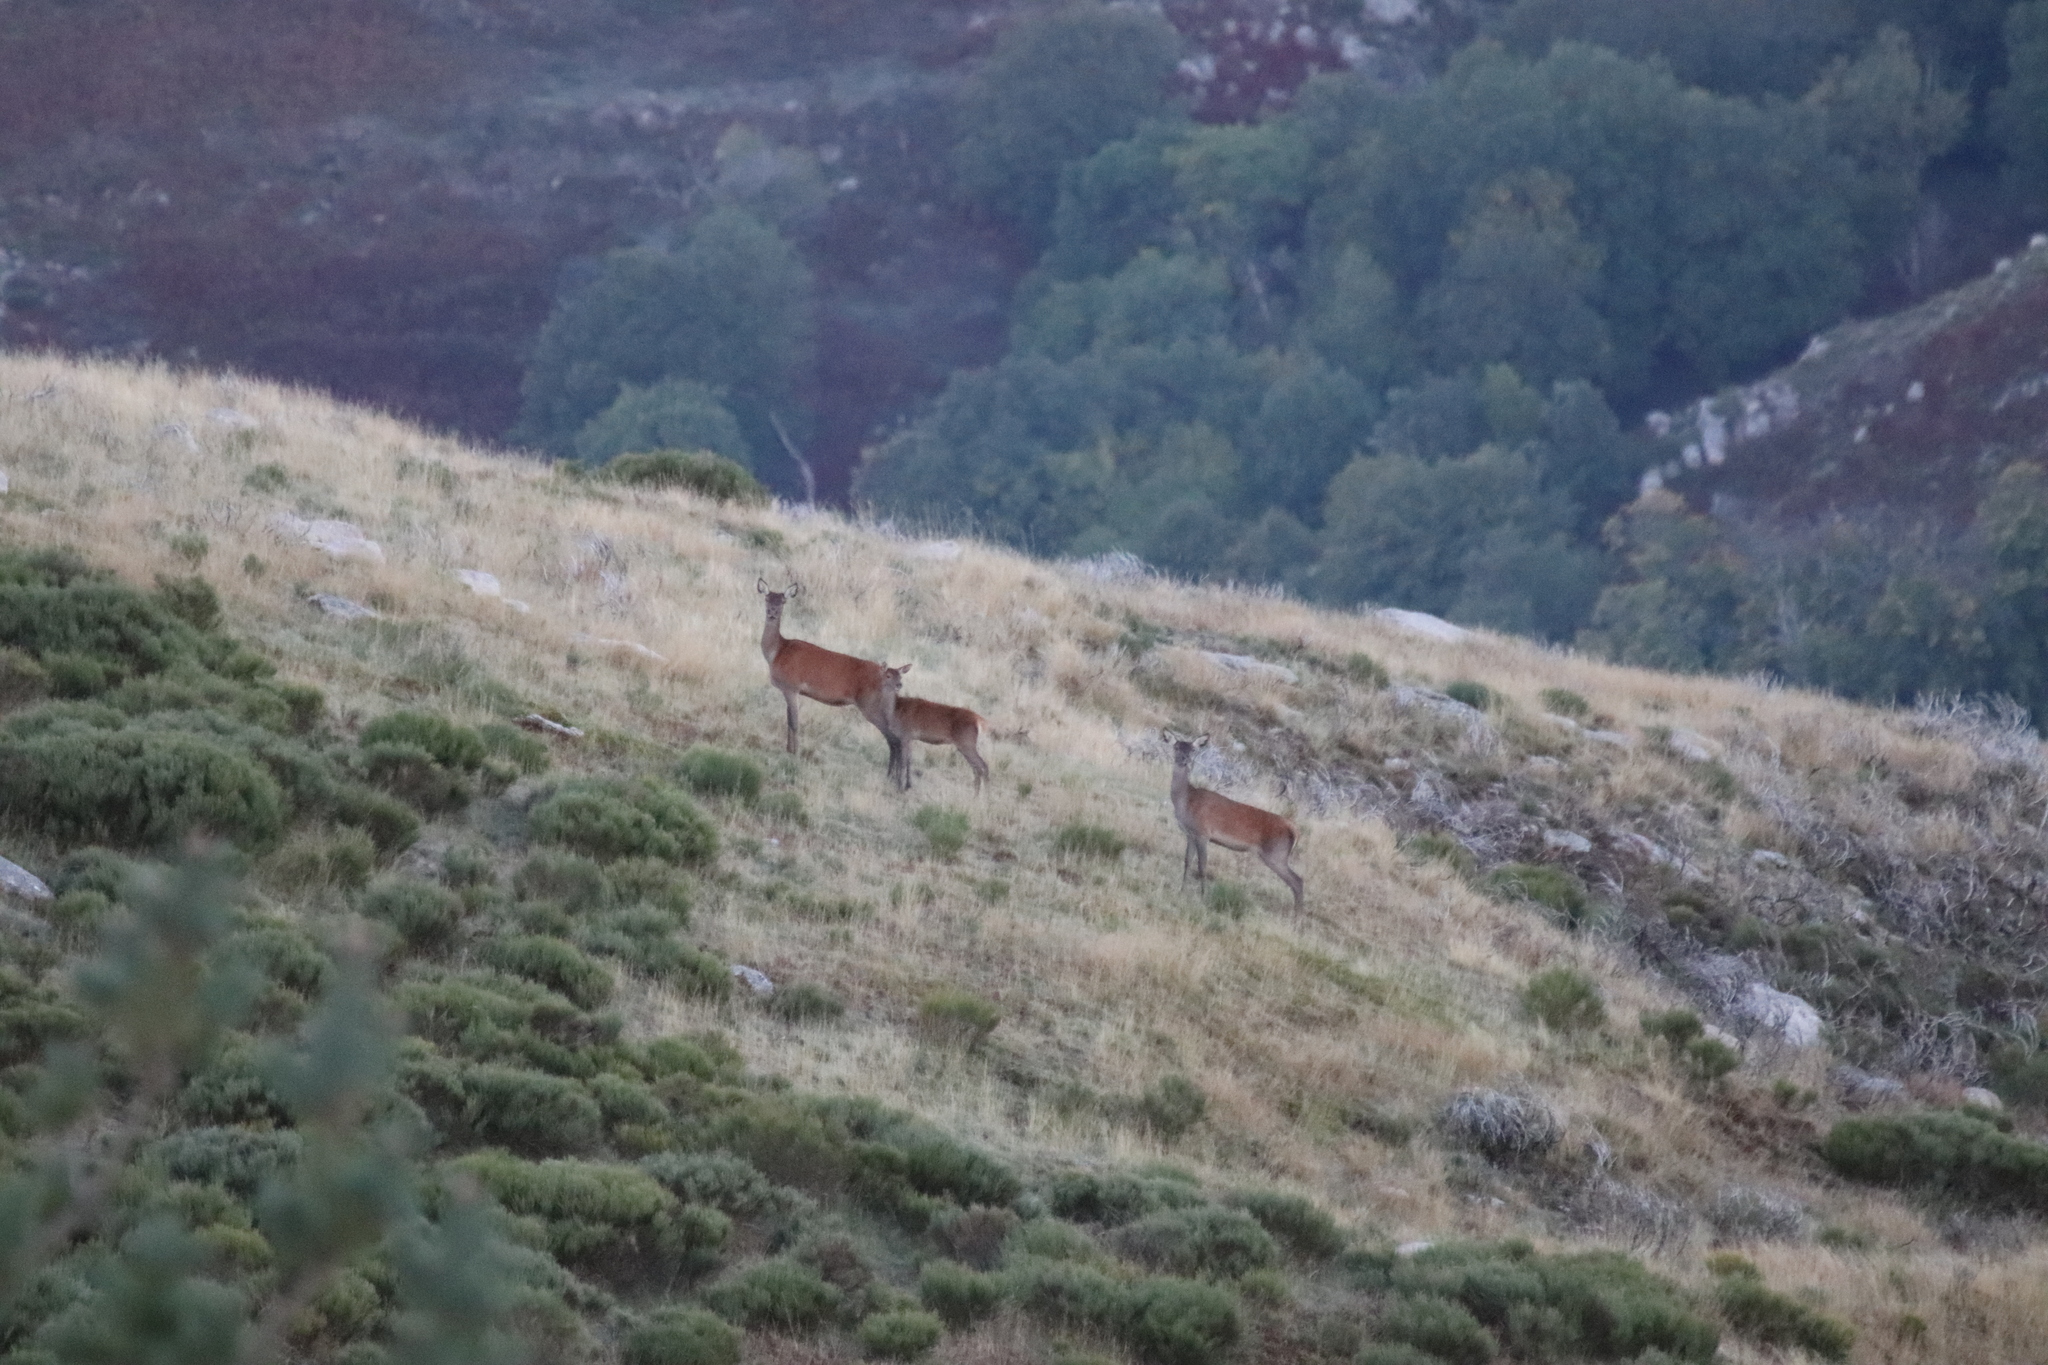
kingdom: Animalia
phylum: Chordata
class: Mammalia
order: Artiodactyla
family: Cervidae
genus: Cervus
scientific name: Cervus elaphus
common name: Red deer
